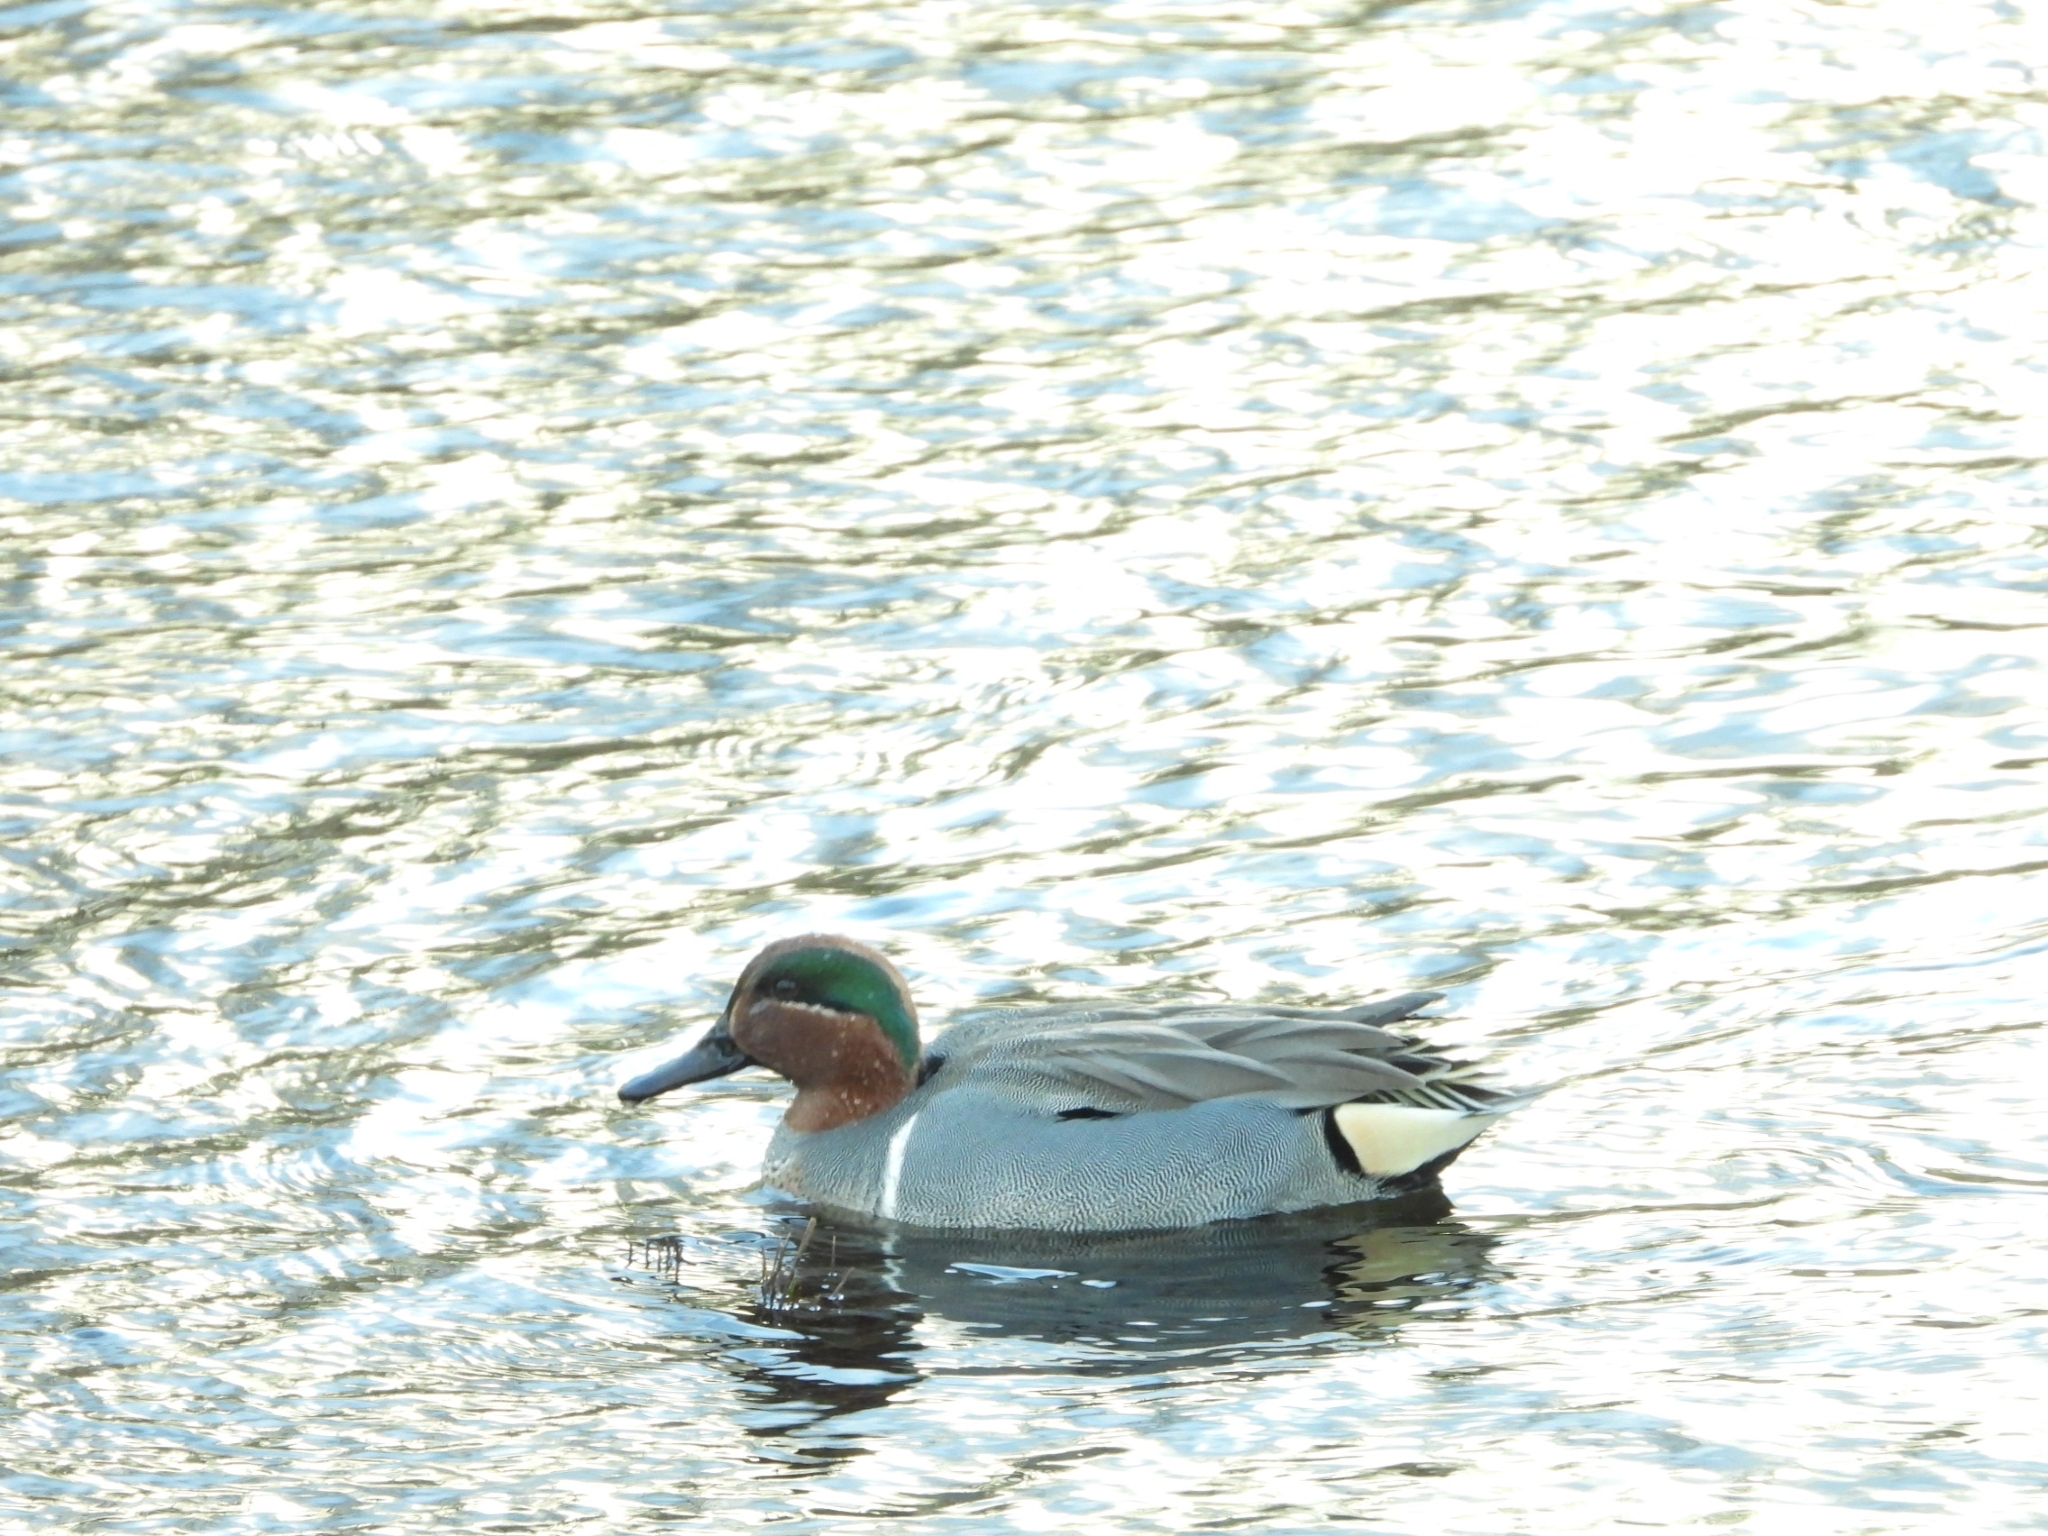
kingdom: Animalia
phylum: Chordata
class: Aves
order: Anseriformes
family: Anatidae
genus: Anas
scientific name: Anas carolinensis
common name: Green-winged teal
